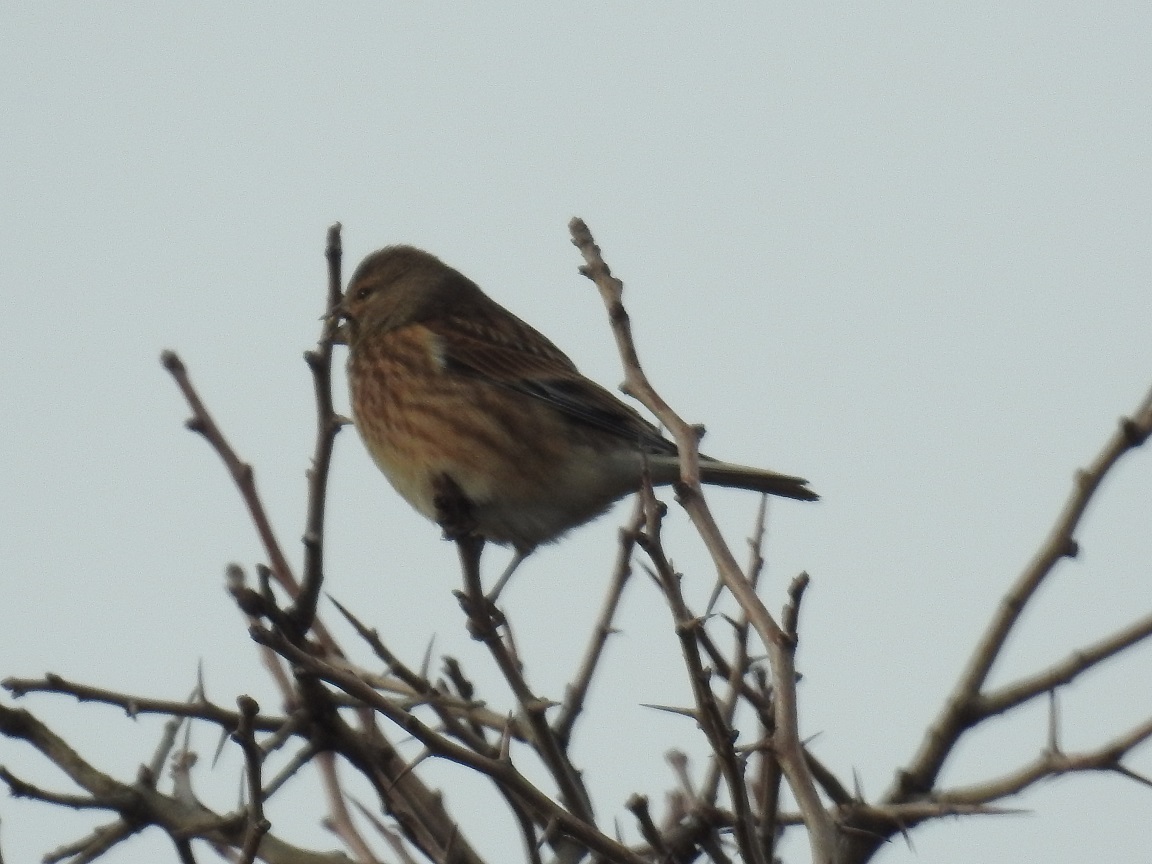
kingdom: Animalia
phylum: Chordata
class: Aves
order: Passeriformes
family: Fringillidae
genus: Linaria
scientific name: Linaria cannabina
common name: Common linnet
